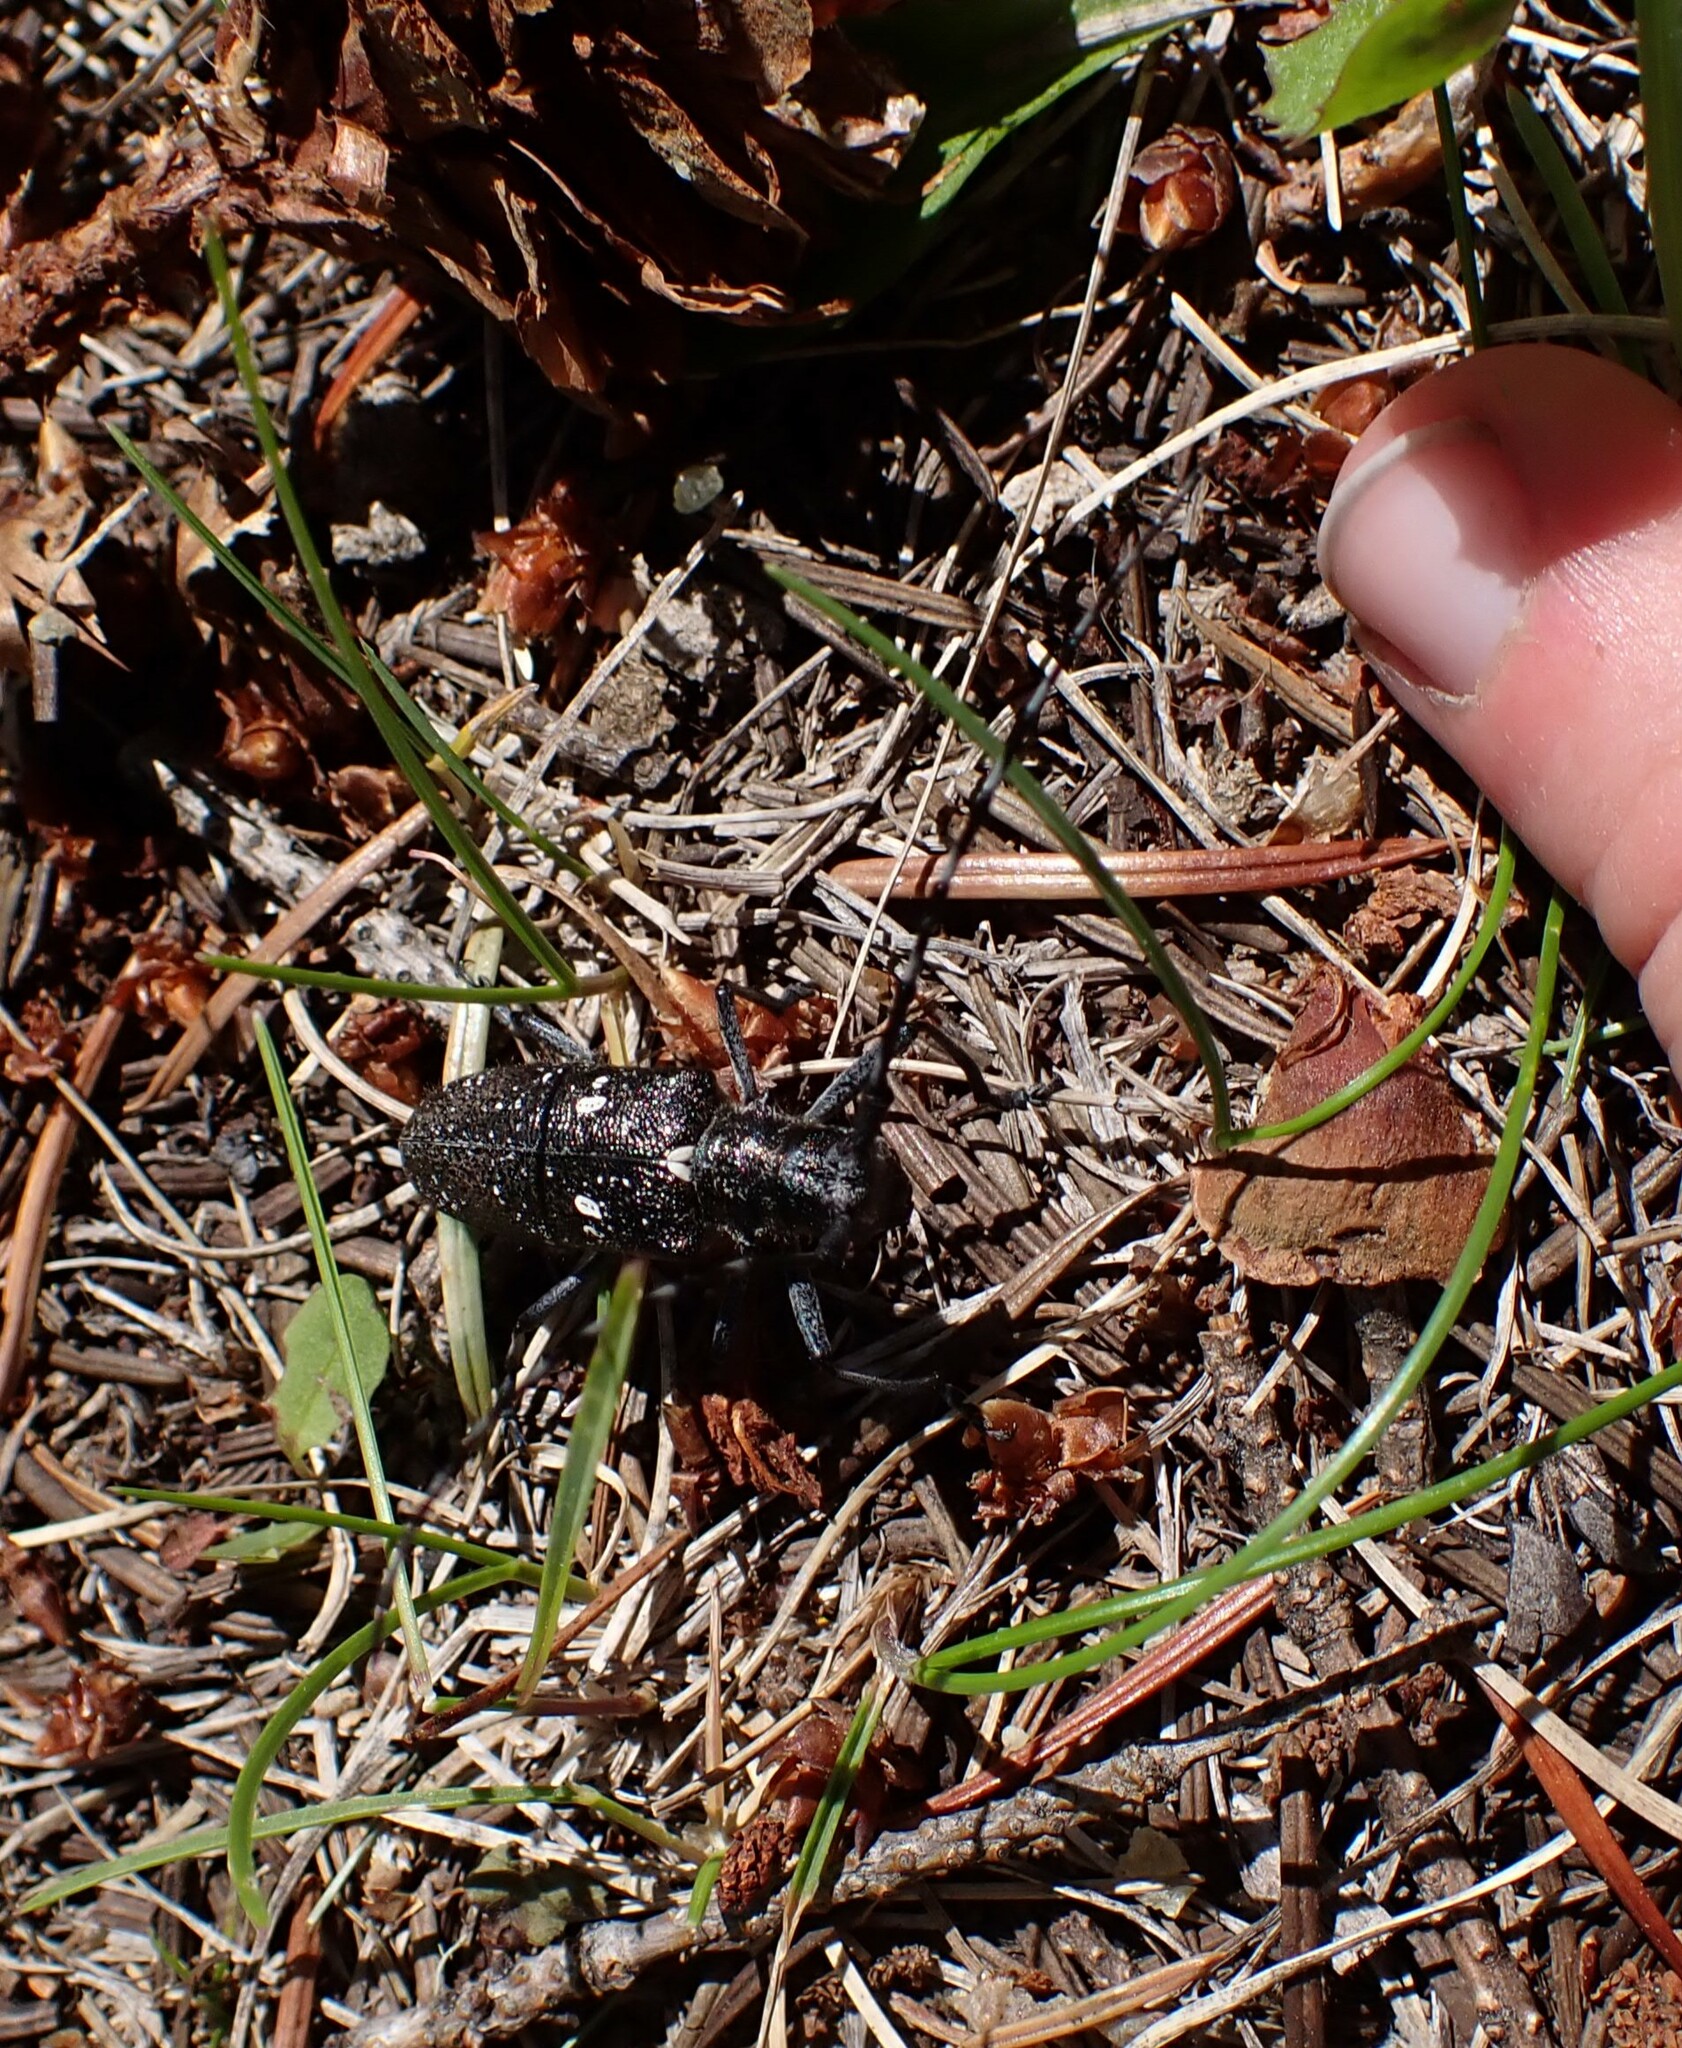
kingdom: Animalia
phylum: Arthropoda
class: Insecta
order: Coleoptera
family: Cerambycidae
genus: Monochamus
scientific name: Monochamus scutellatus
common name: White-spotted sawyer beetle
